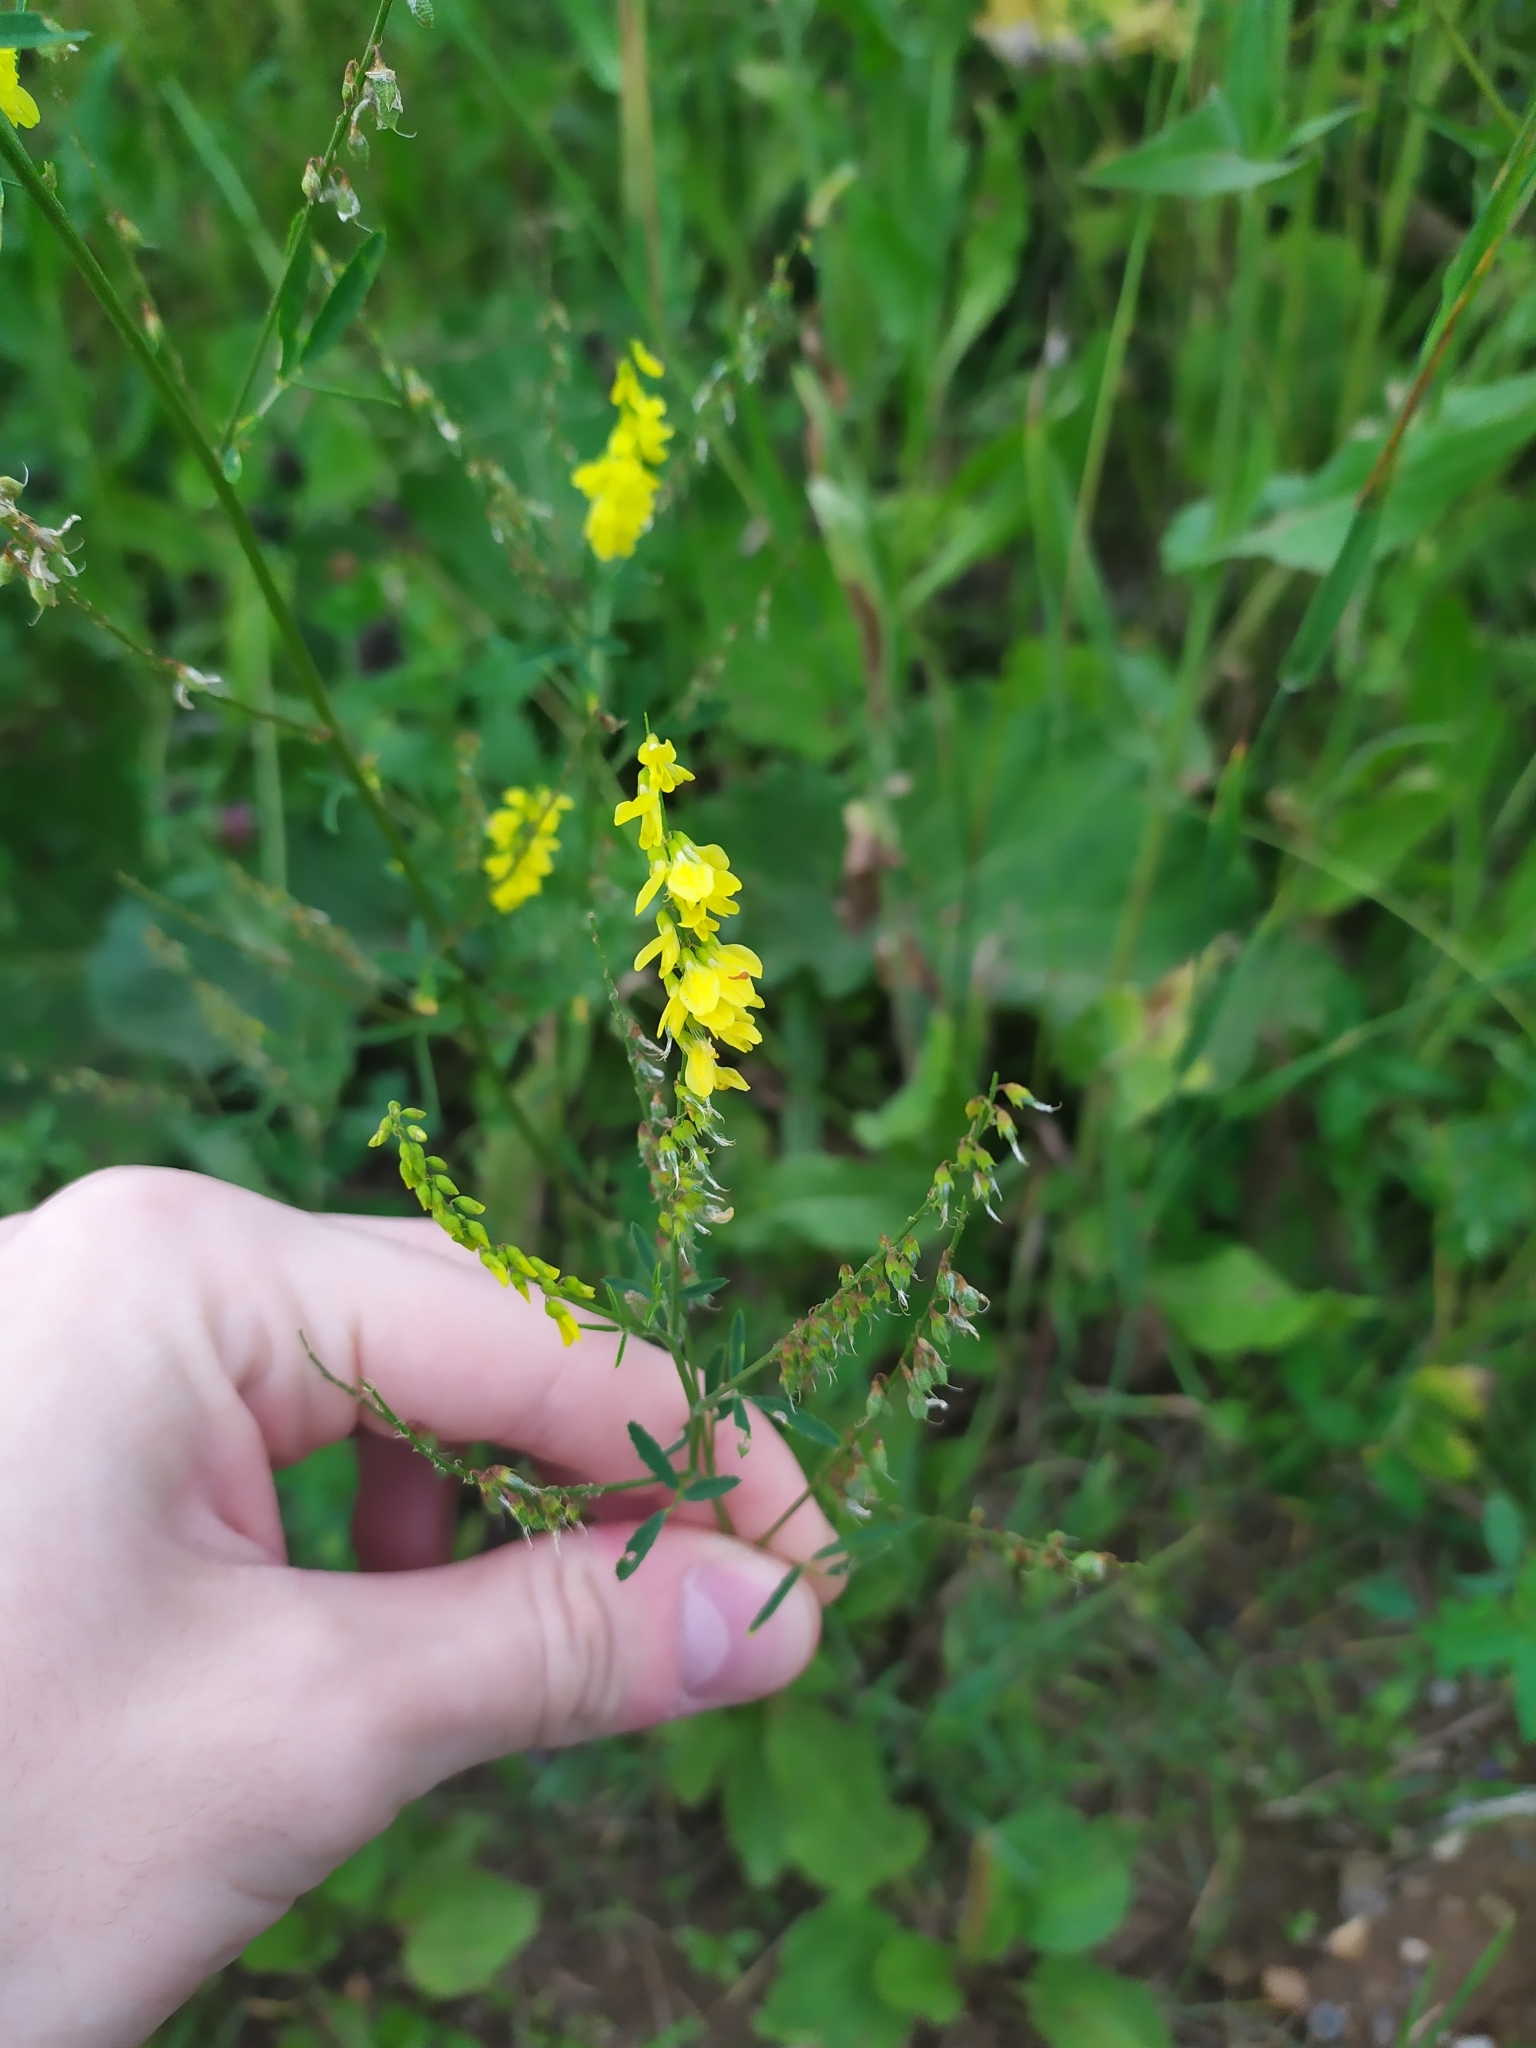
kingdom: Plantae
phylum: Tracheophyta
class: Magnoliopsida
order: Fabales
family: Fabaceae
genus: Melilotus
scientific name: Melilotus officinalis
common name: Sweetclover
